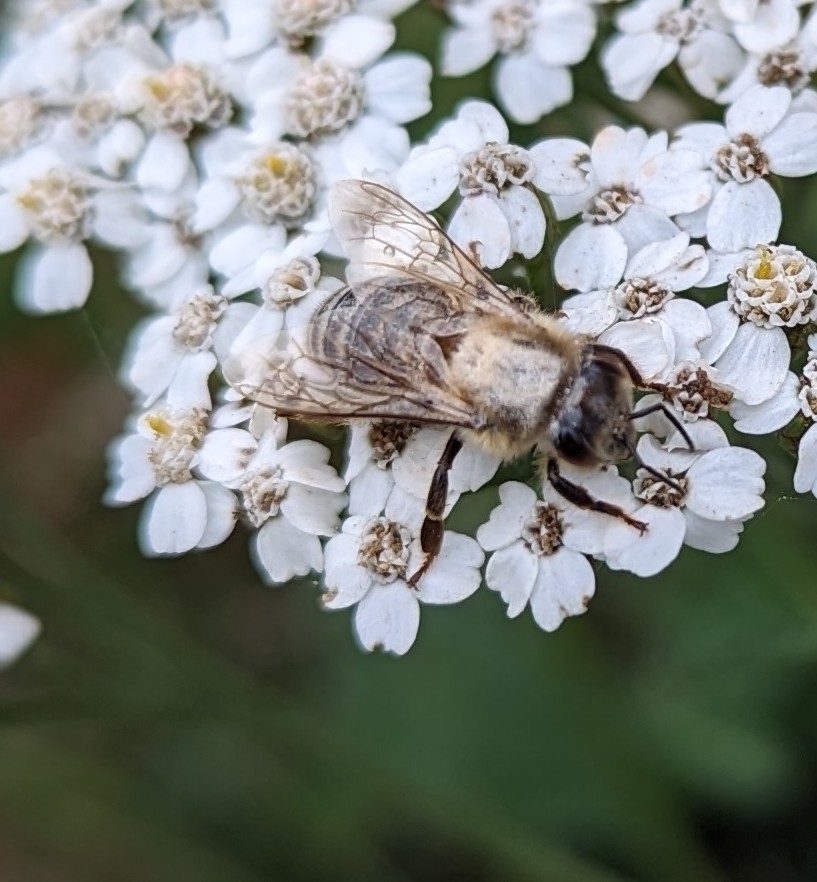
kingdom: Animalia
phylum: Arthropoda
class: Insecta
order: Hymenoptera
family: Apidae
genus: Apis
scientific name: Apis mellifera
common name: Honey bee
